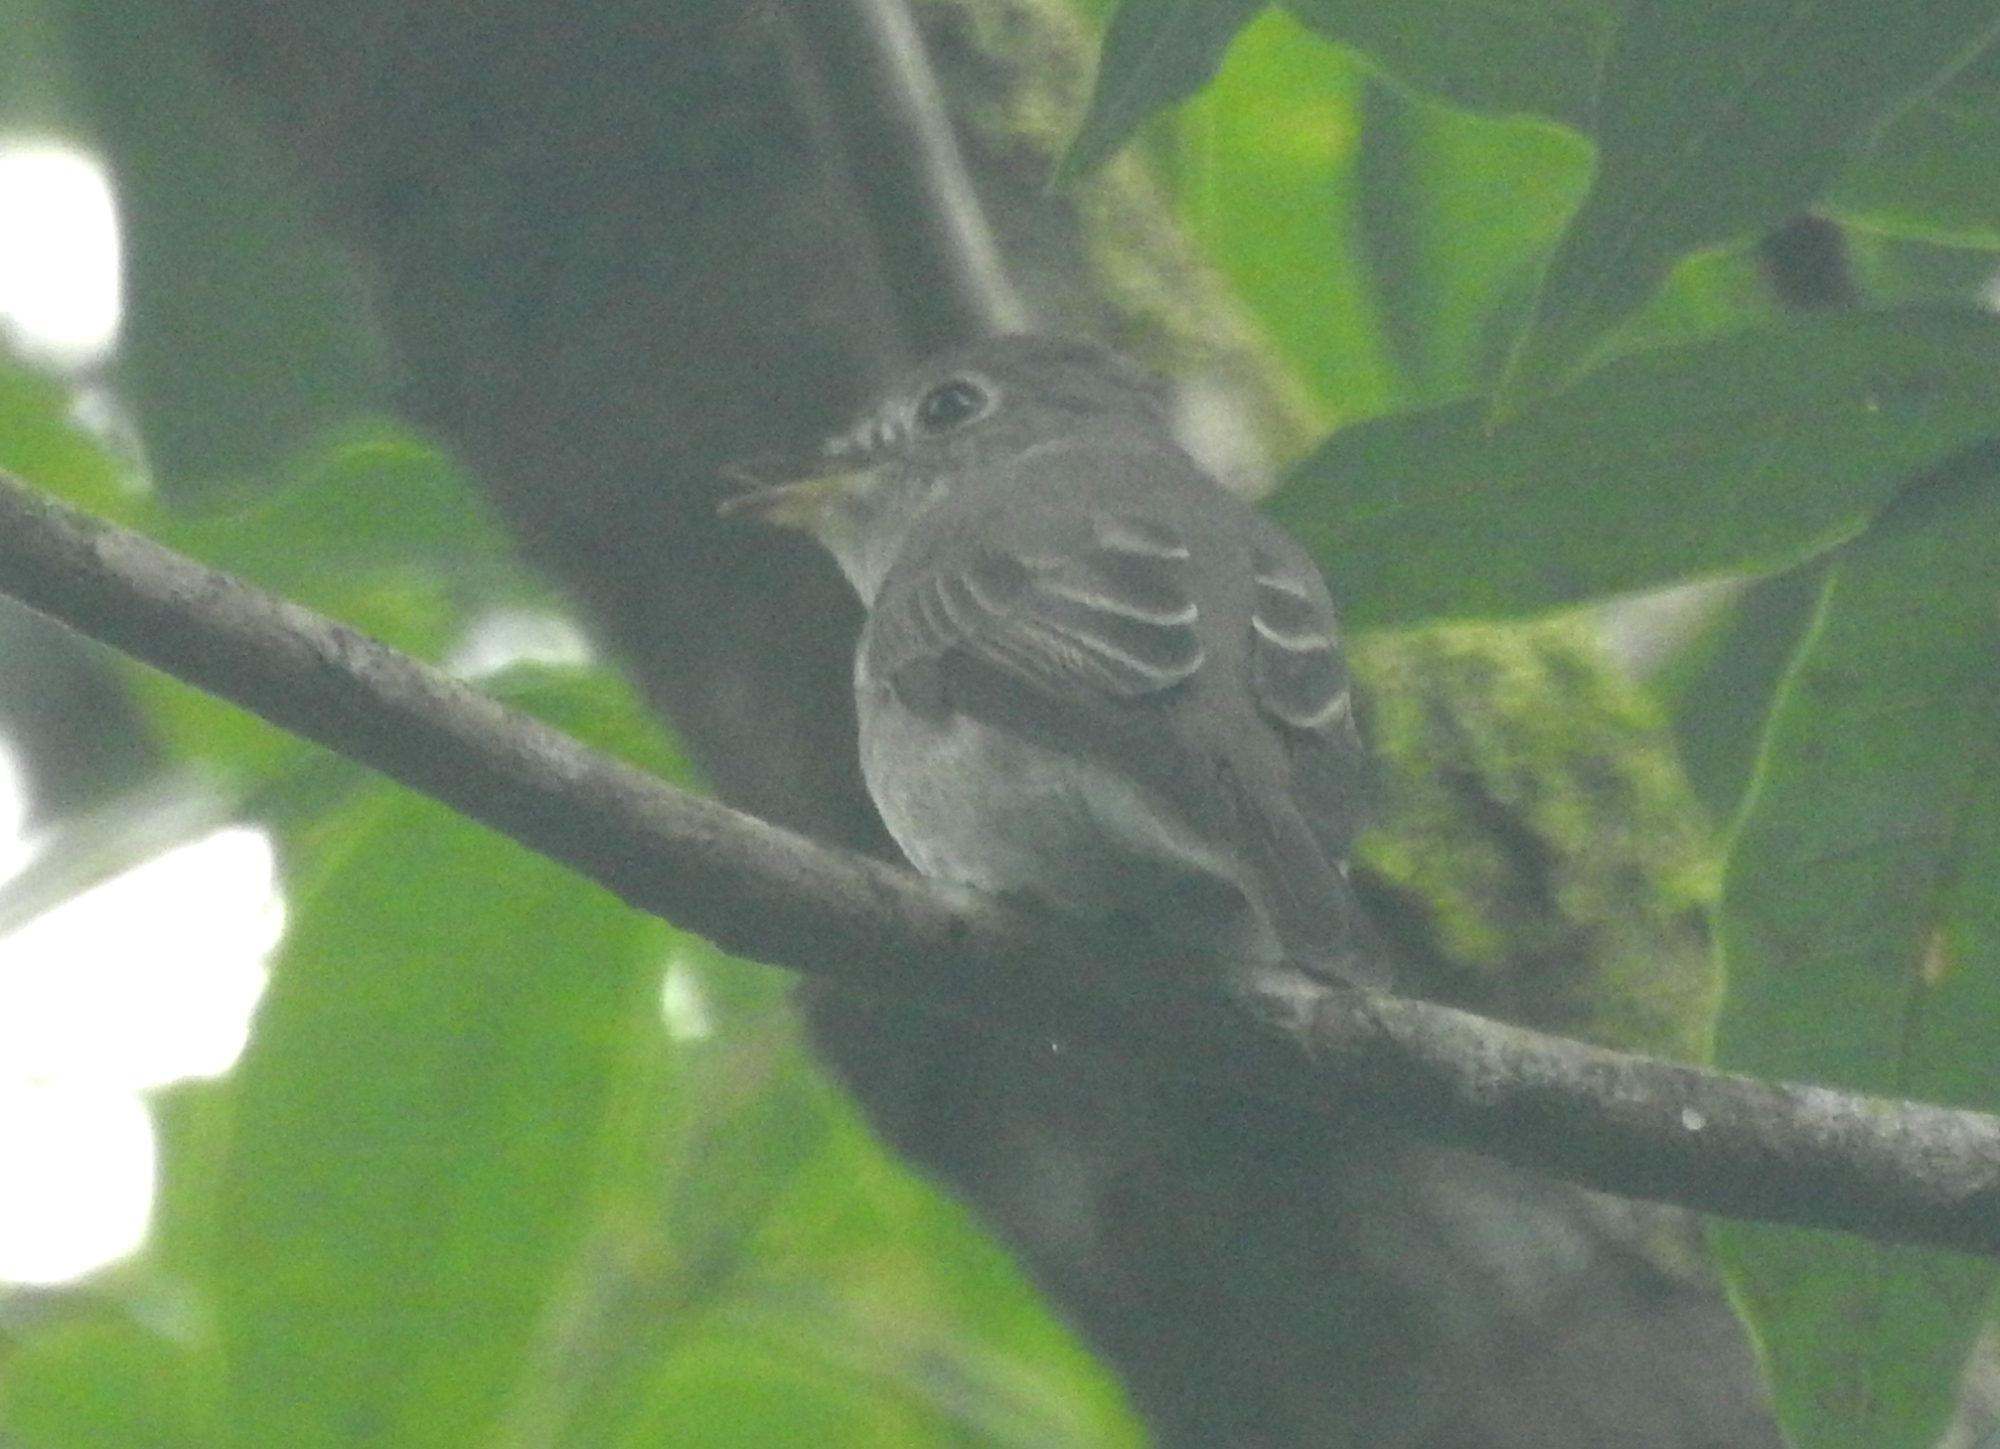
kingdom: Animalia
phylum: Chordata
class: Aves
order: Passeriformes
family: Muscicapidae
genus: Muscicapa
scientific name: Muscicapa latirostris
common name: Asian brown flycatcher
